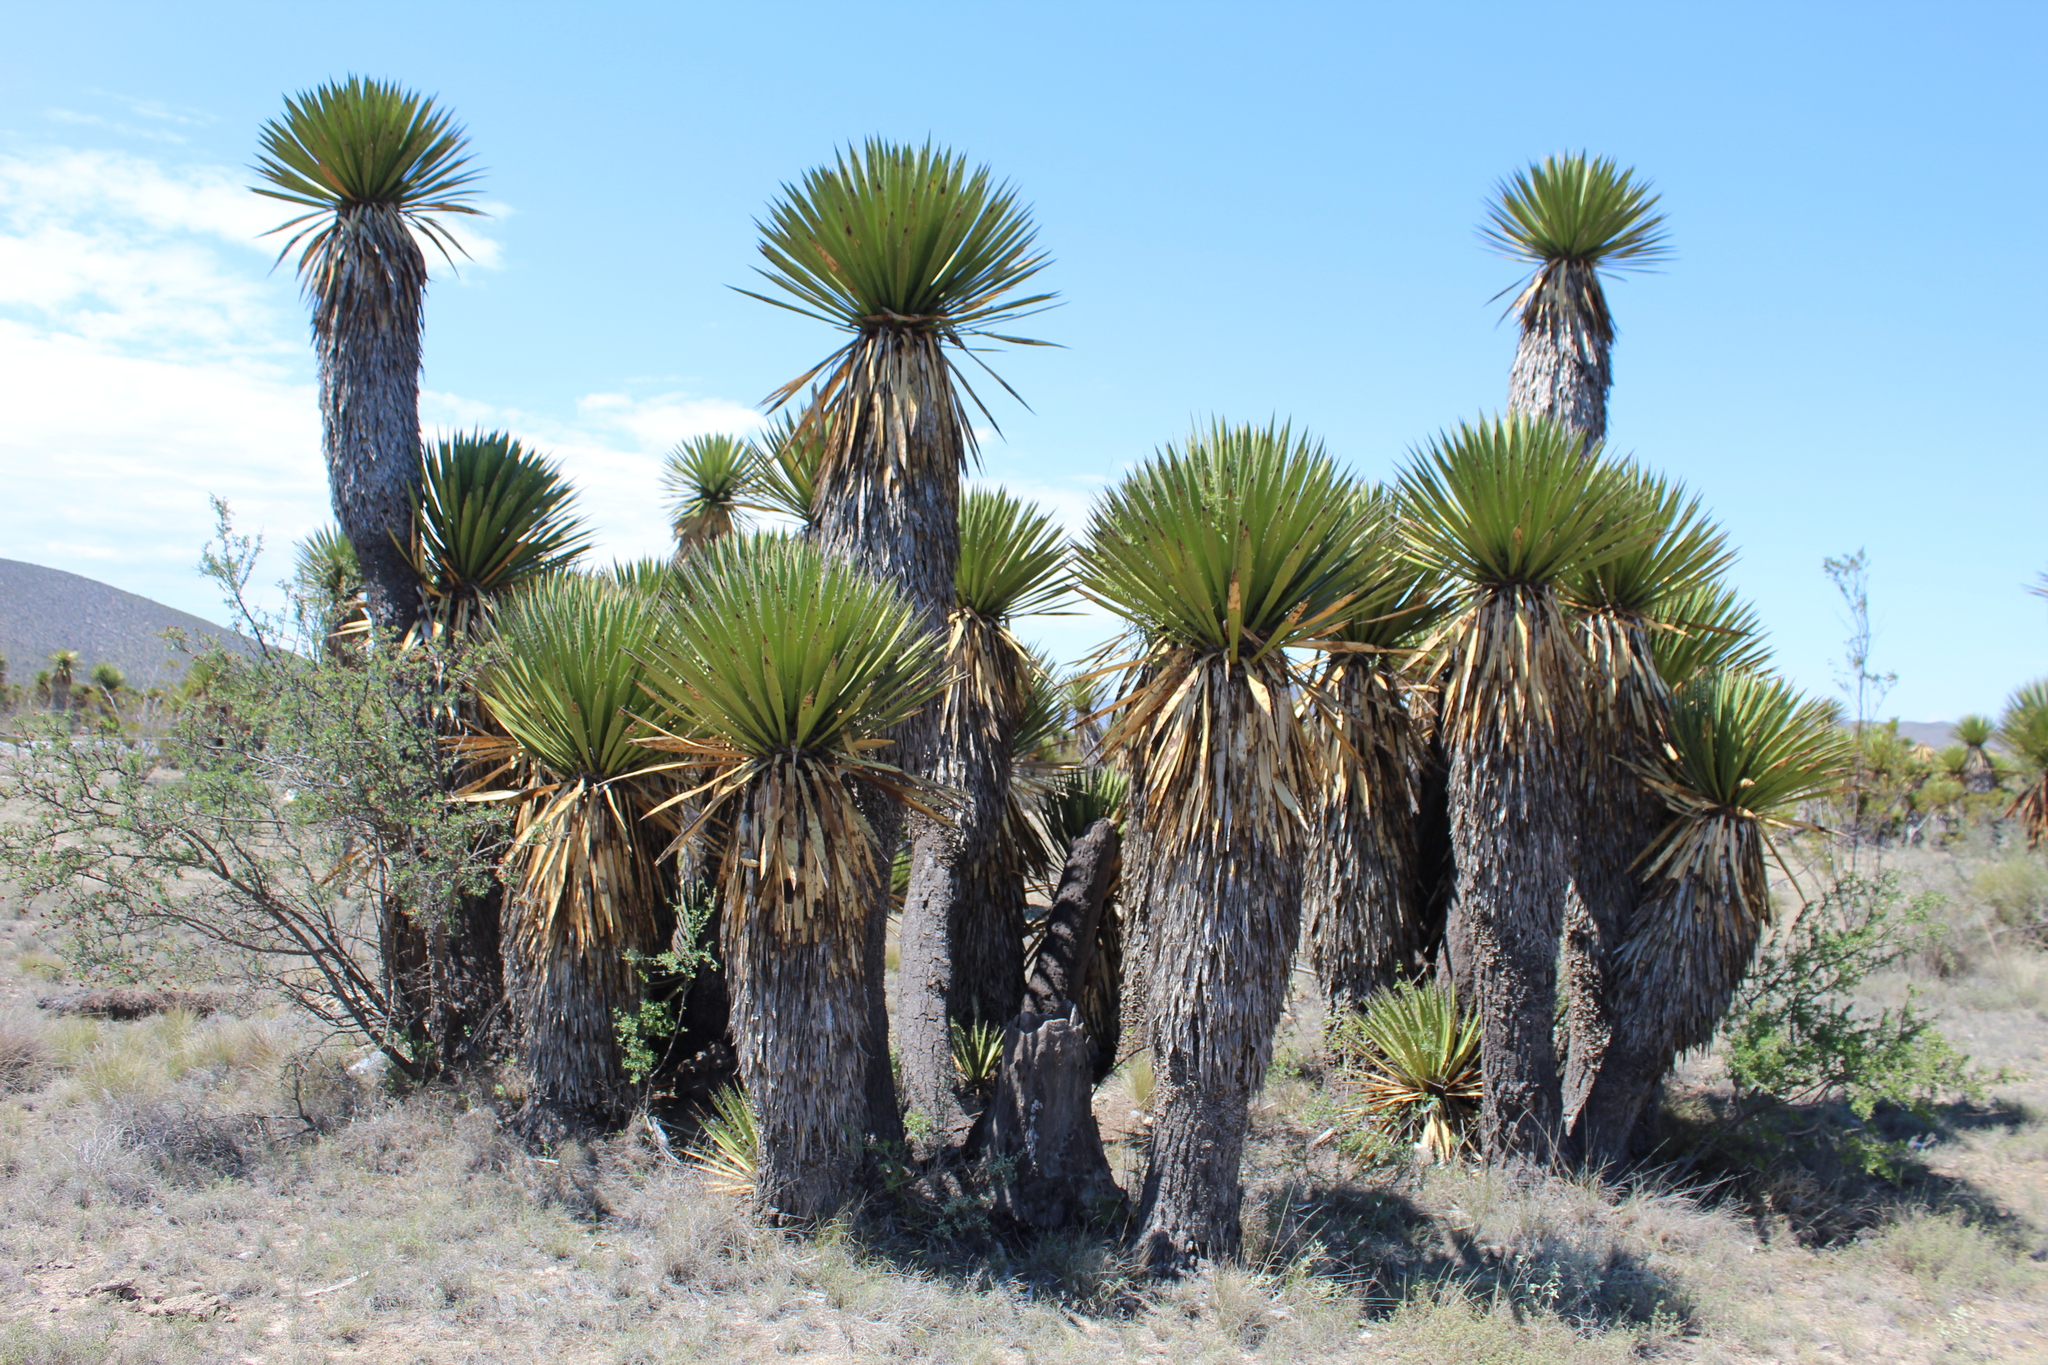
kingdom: Plantae
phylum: Tracheophyta
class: Liliopsida
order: Asparagales
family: Asparagaceae
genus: Yucca
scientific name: Yucca filifera
